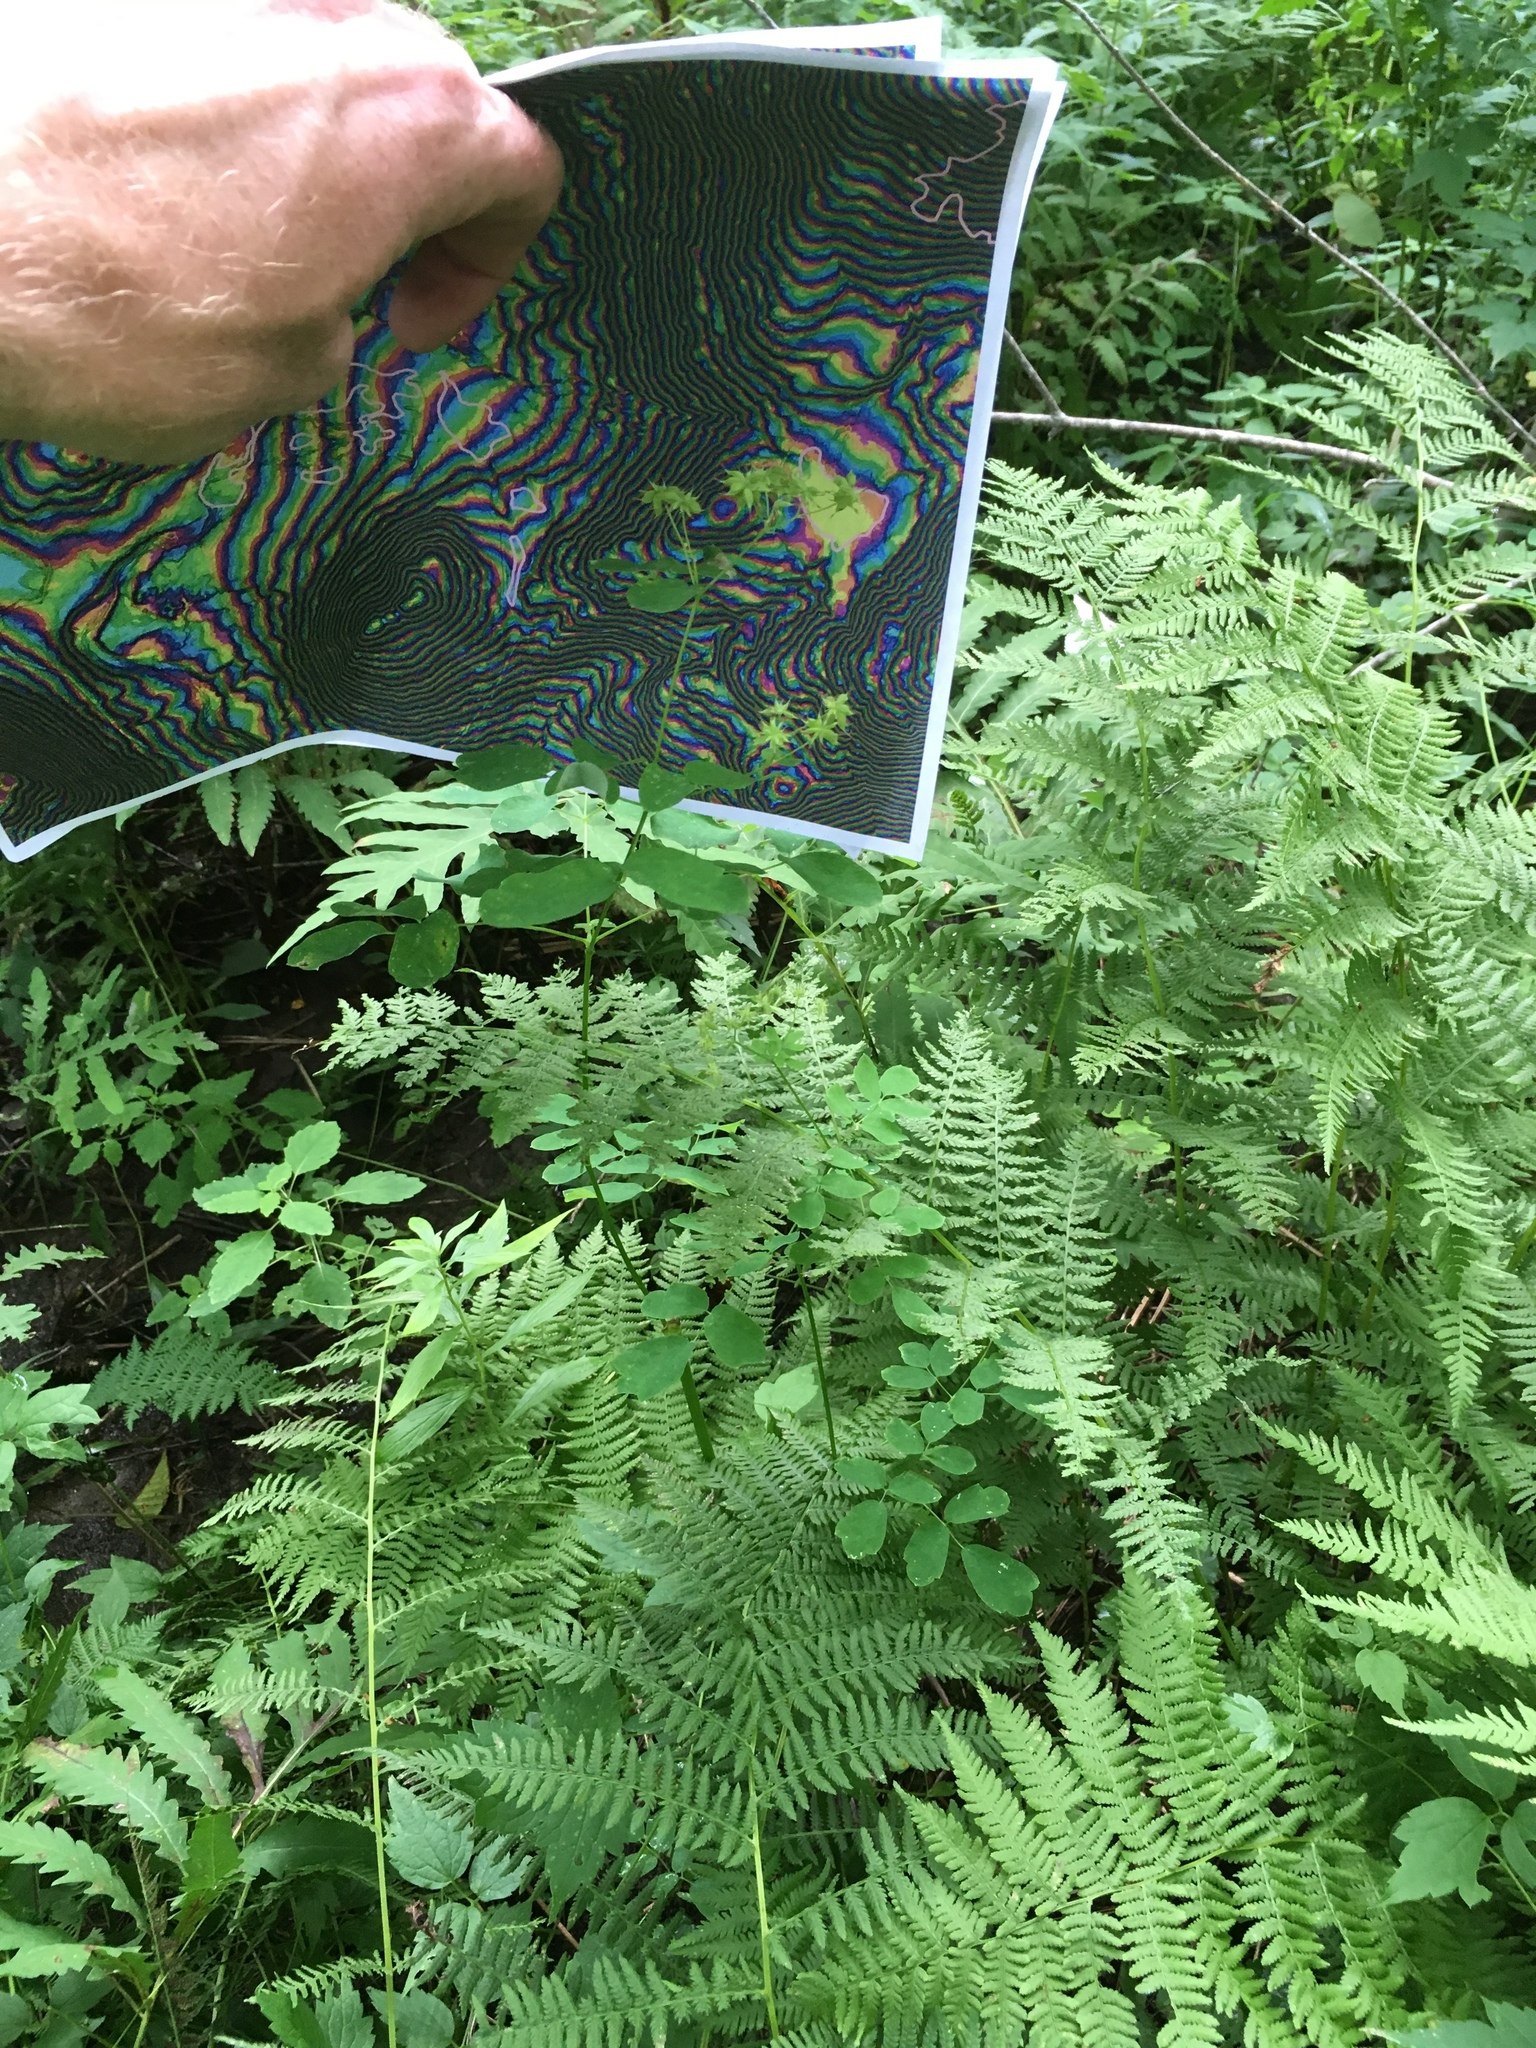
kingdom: Plantae
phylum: Tracheophyta
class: Magnoliopsida
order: Ranunculales
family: Ranunculaceae
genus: Thalictrum
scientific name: Thalictrum pubescens
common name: King-of-the-meadow
